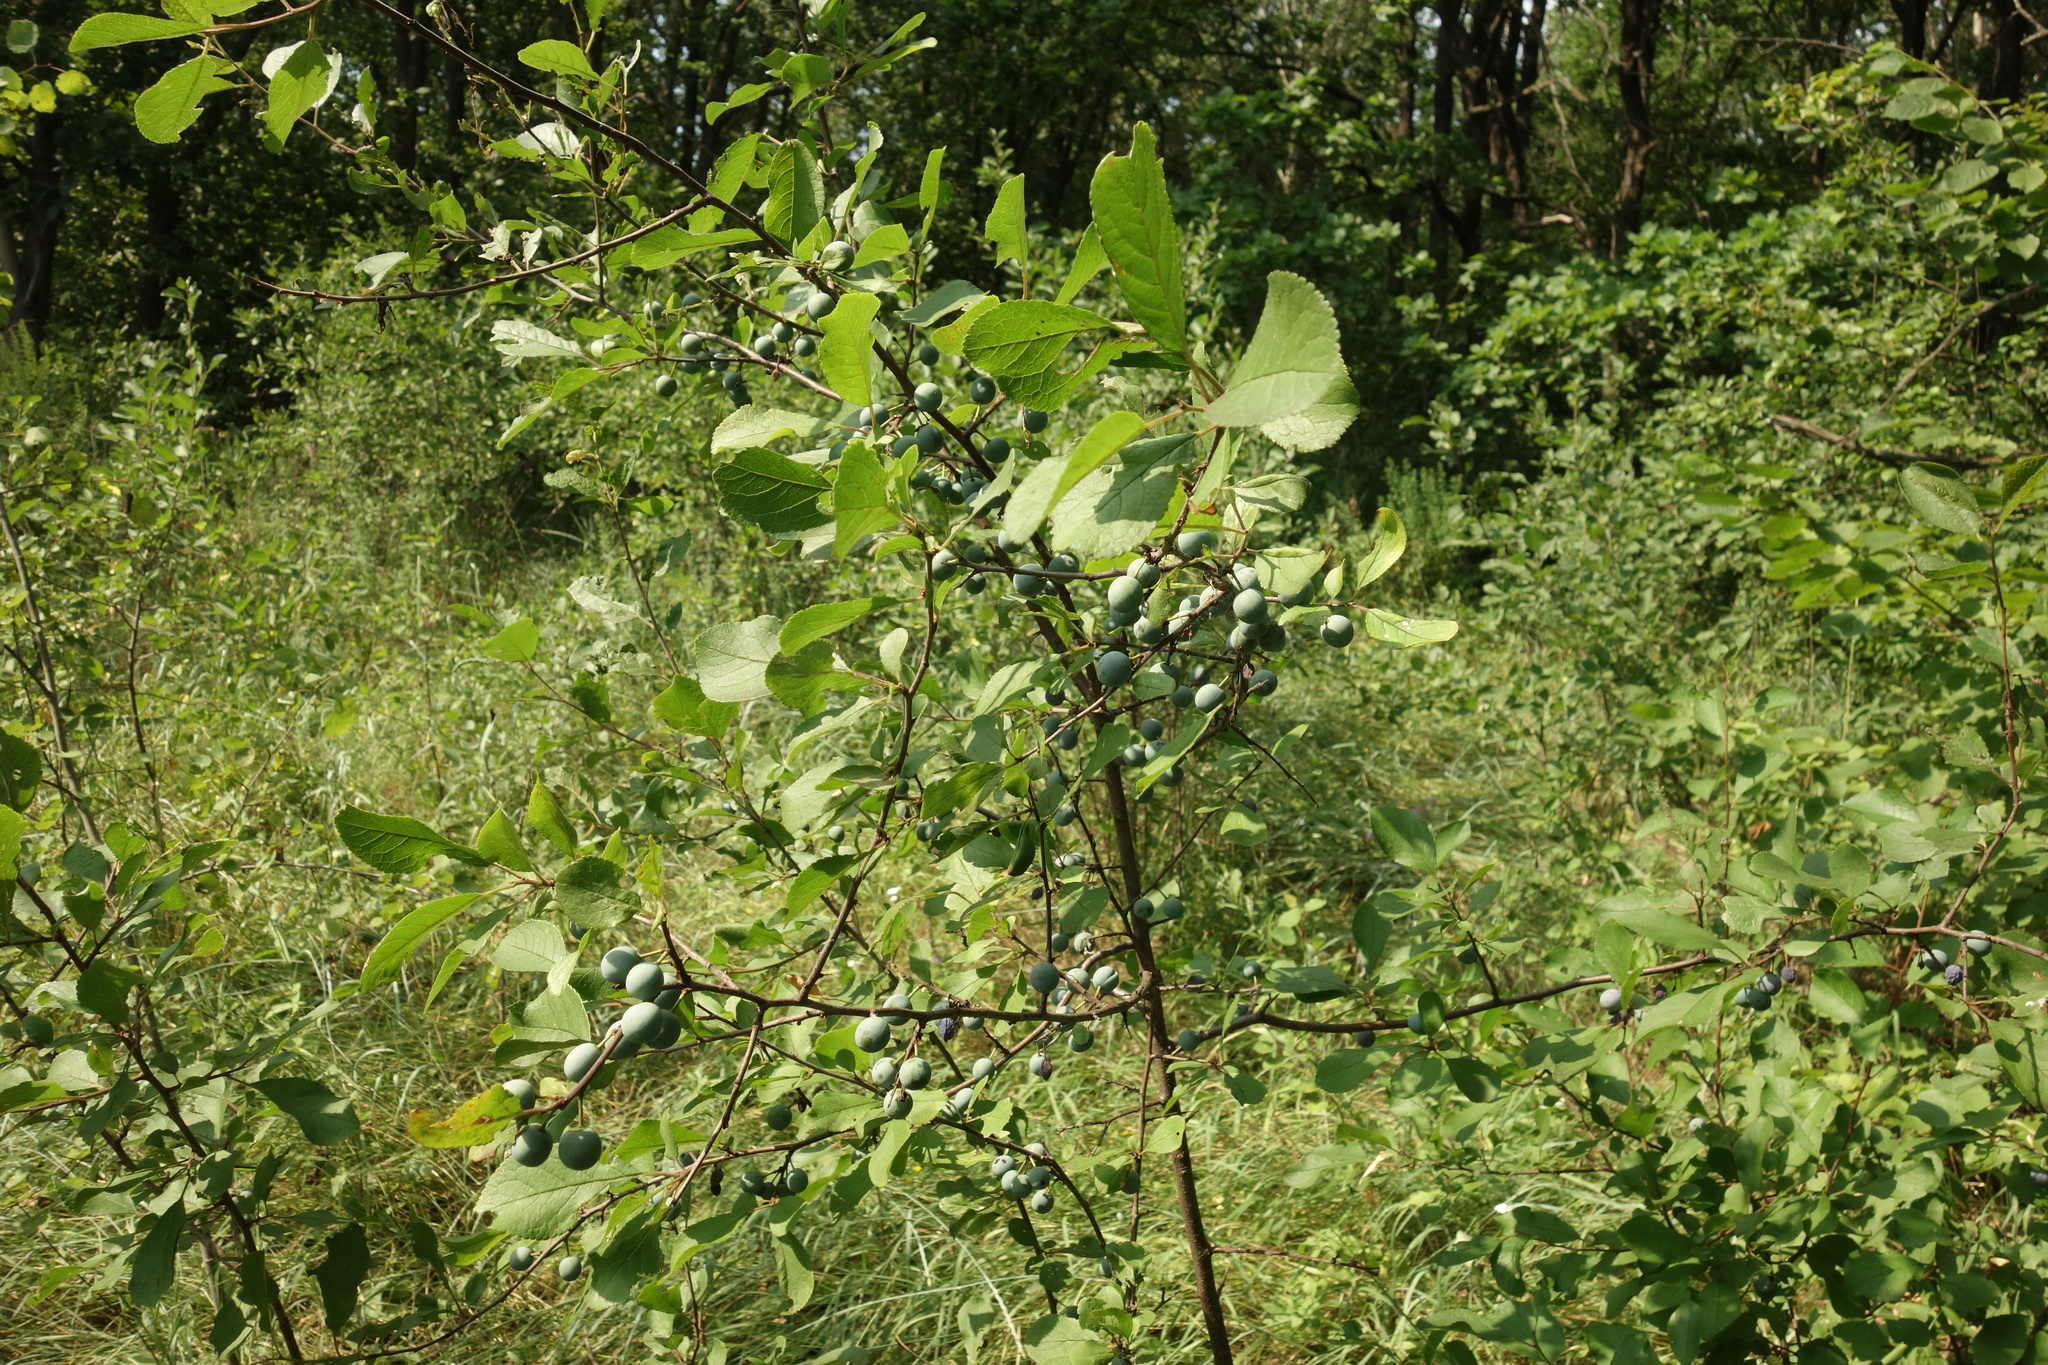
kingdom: Plantae
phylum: Tracheophyta
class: Magnoliopsida
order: Rosales
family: Rosaceae
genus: Prunus
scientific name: Prunus spinosa
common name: Blackthorn
